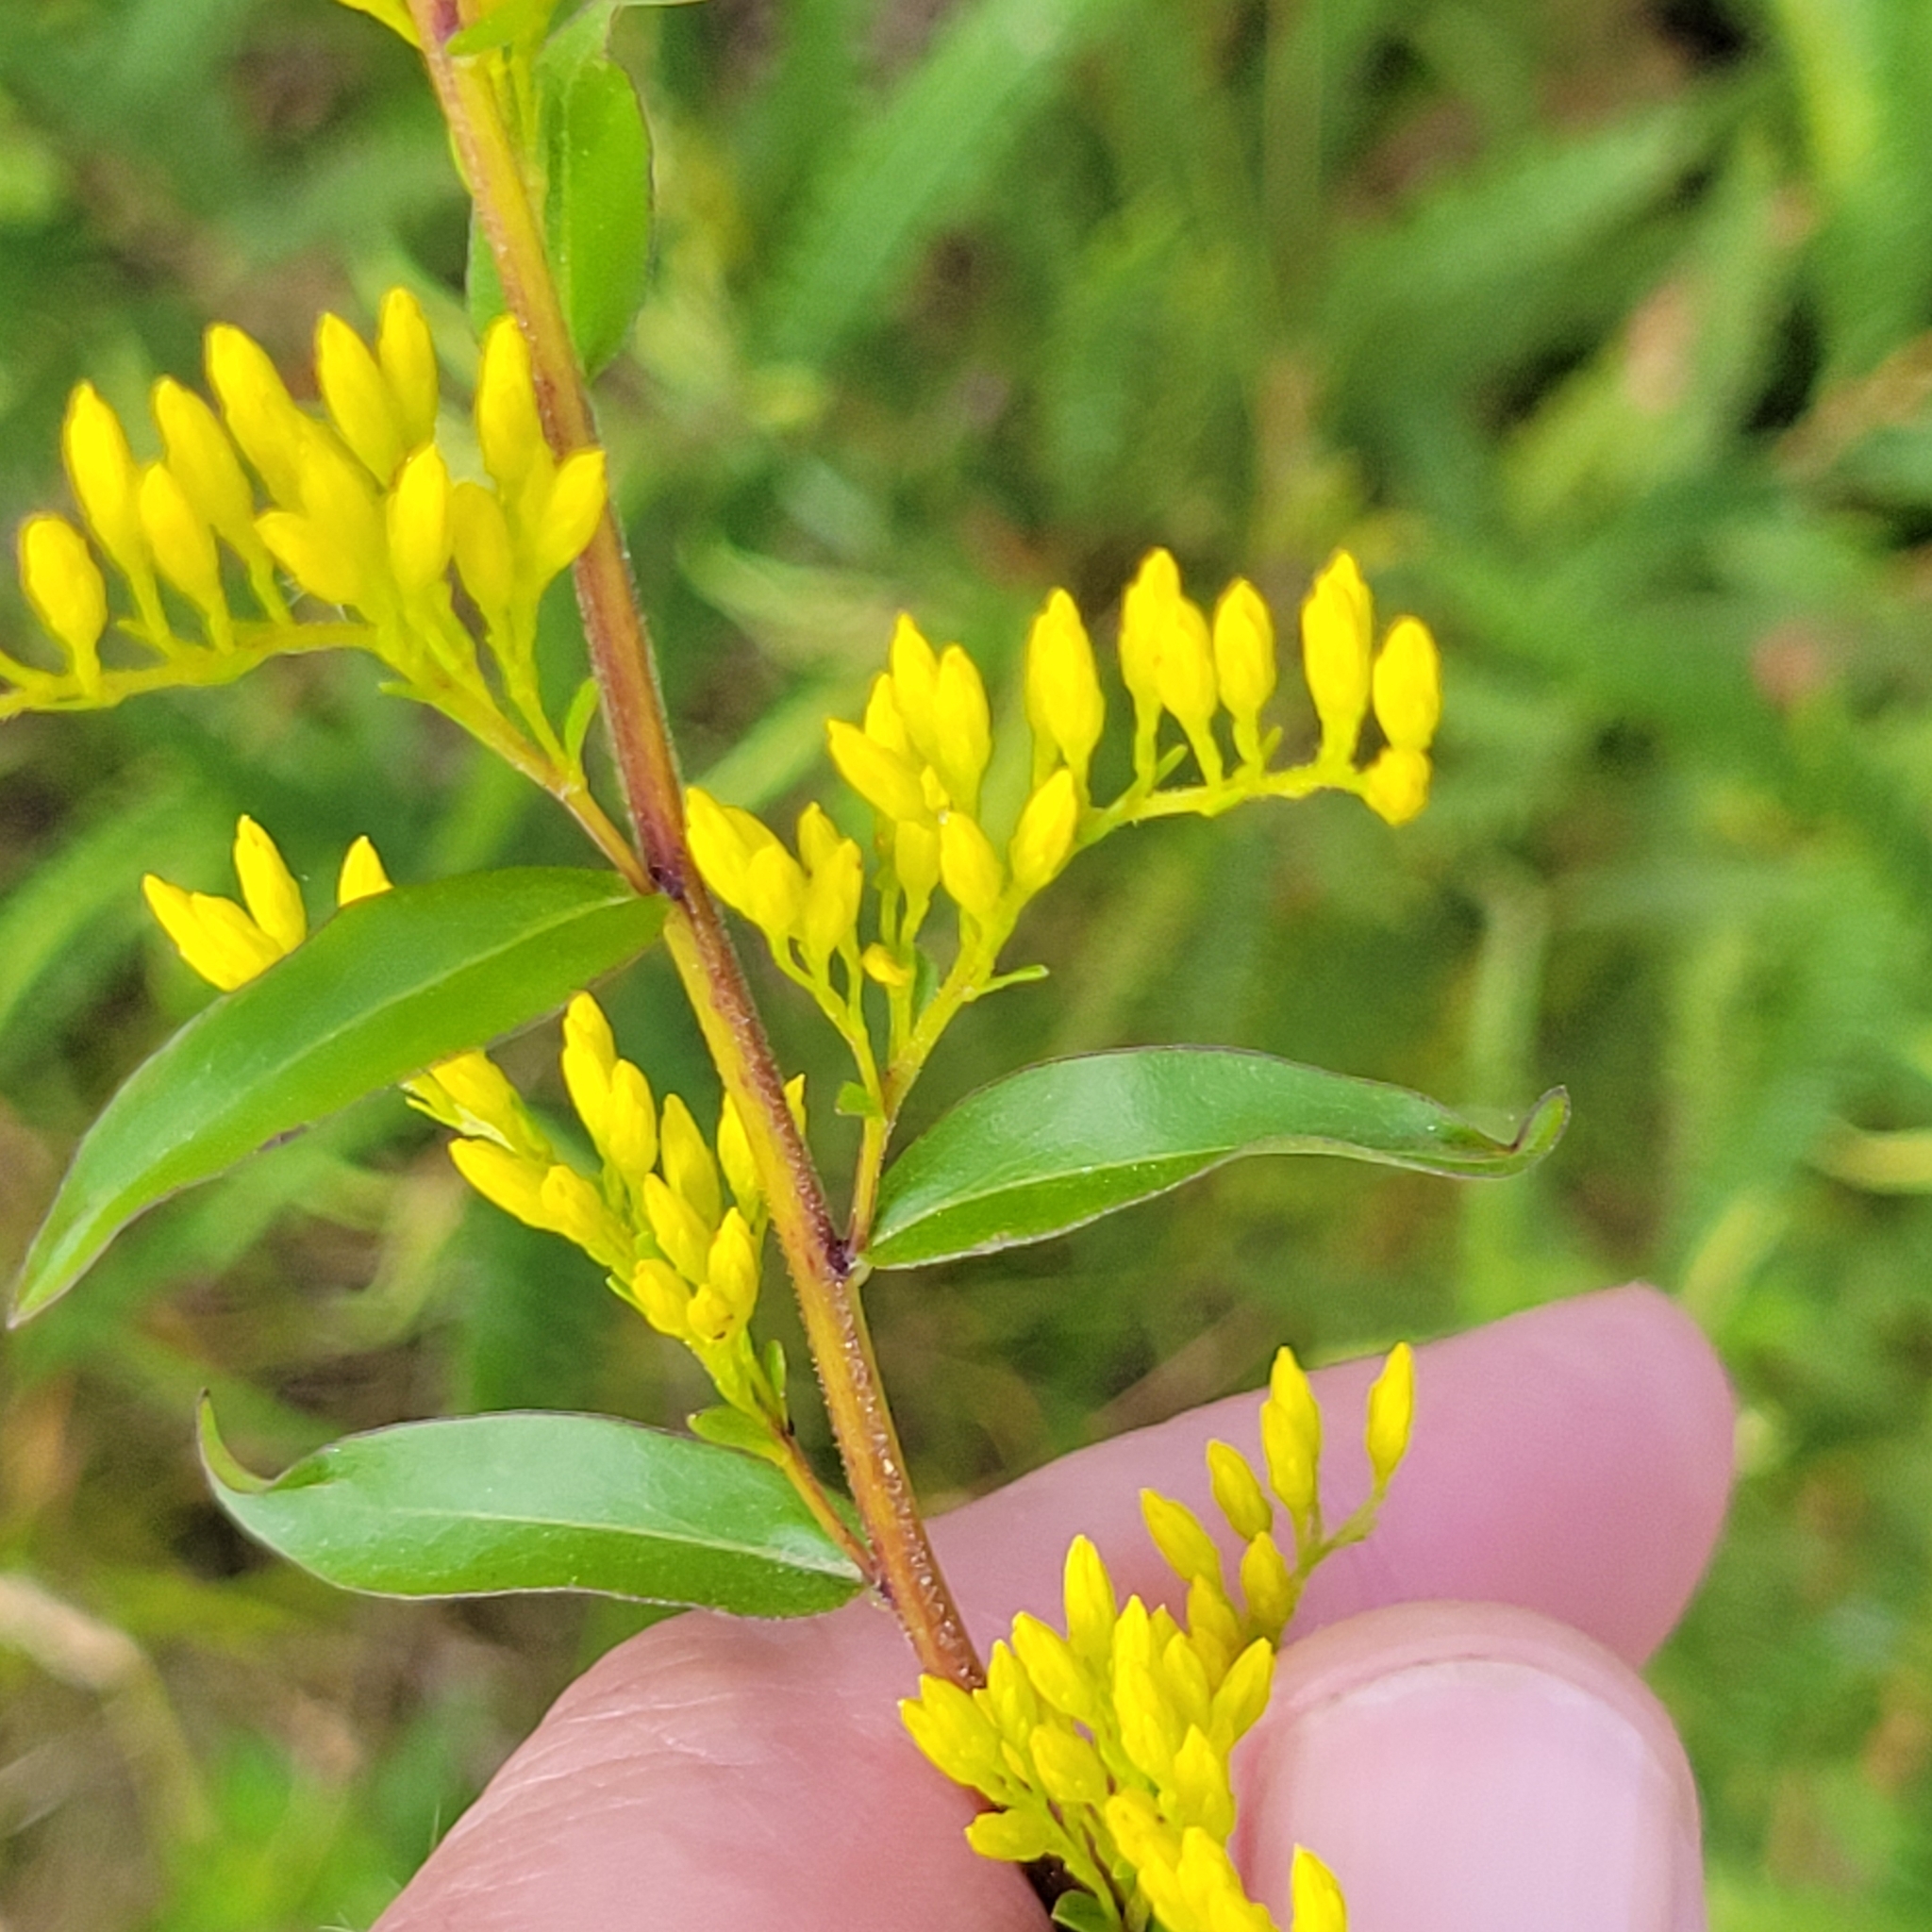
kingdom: Plantae
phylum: Tracheophyta
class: Magnoliopsida
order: Asterales
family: Asteraceae
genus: Solidago
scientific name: Solidago odora
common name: Anise-scented goldenrod
